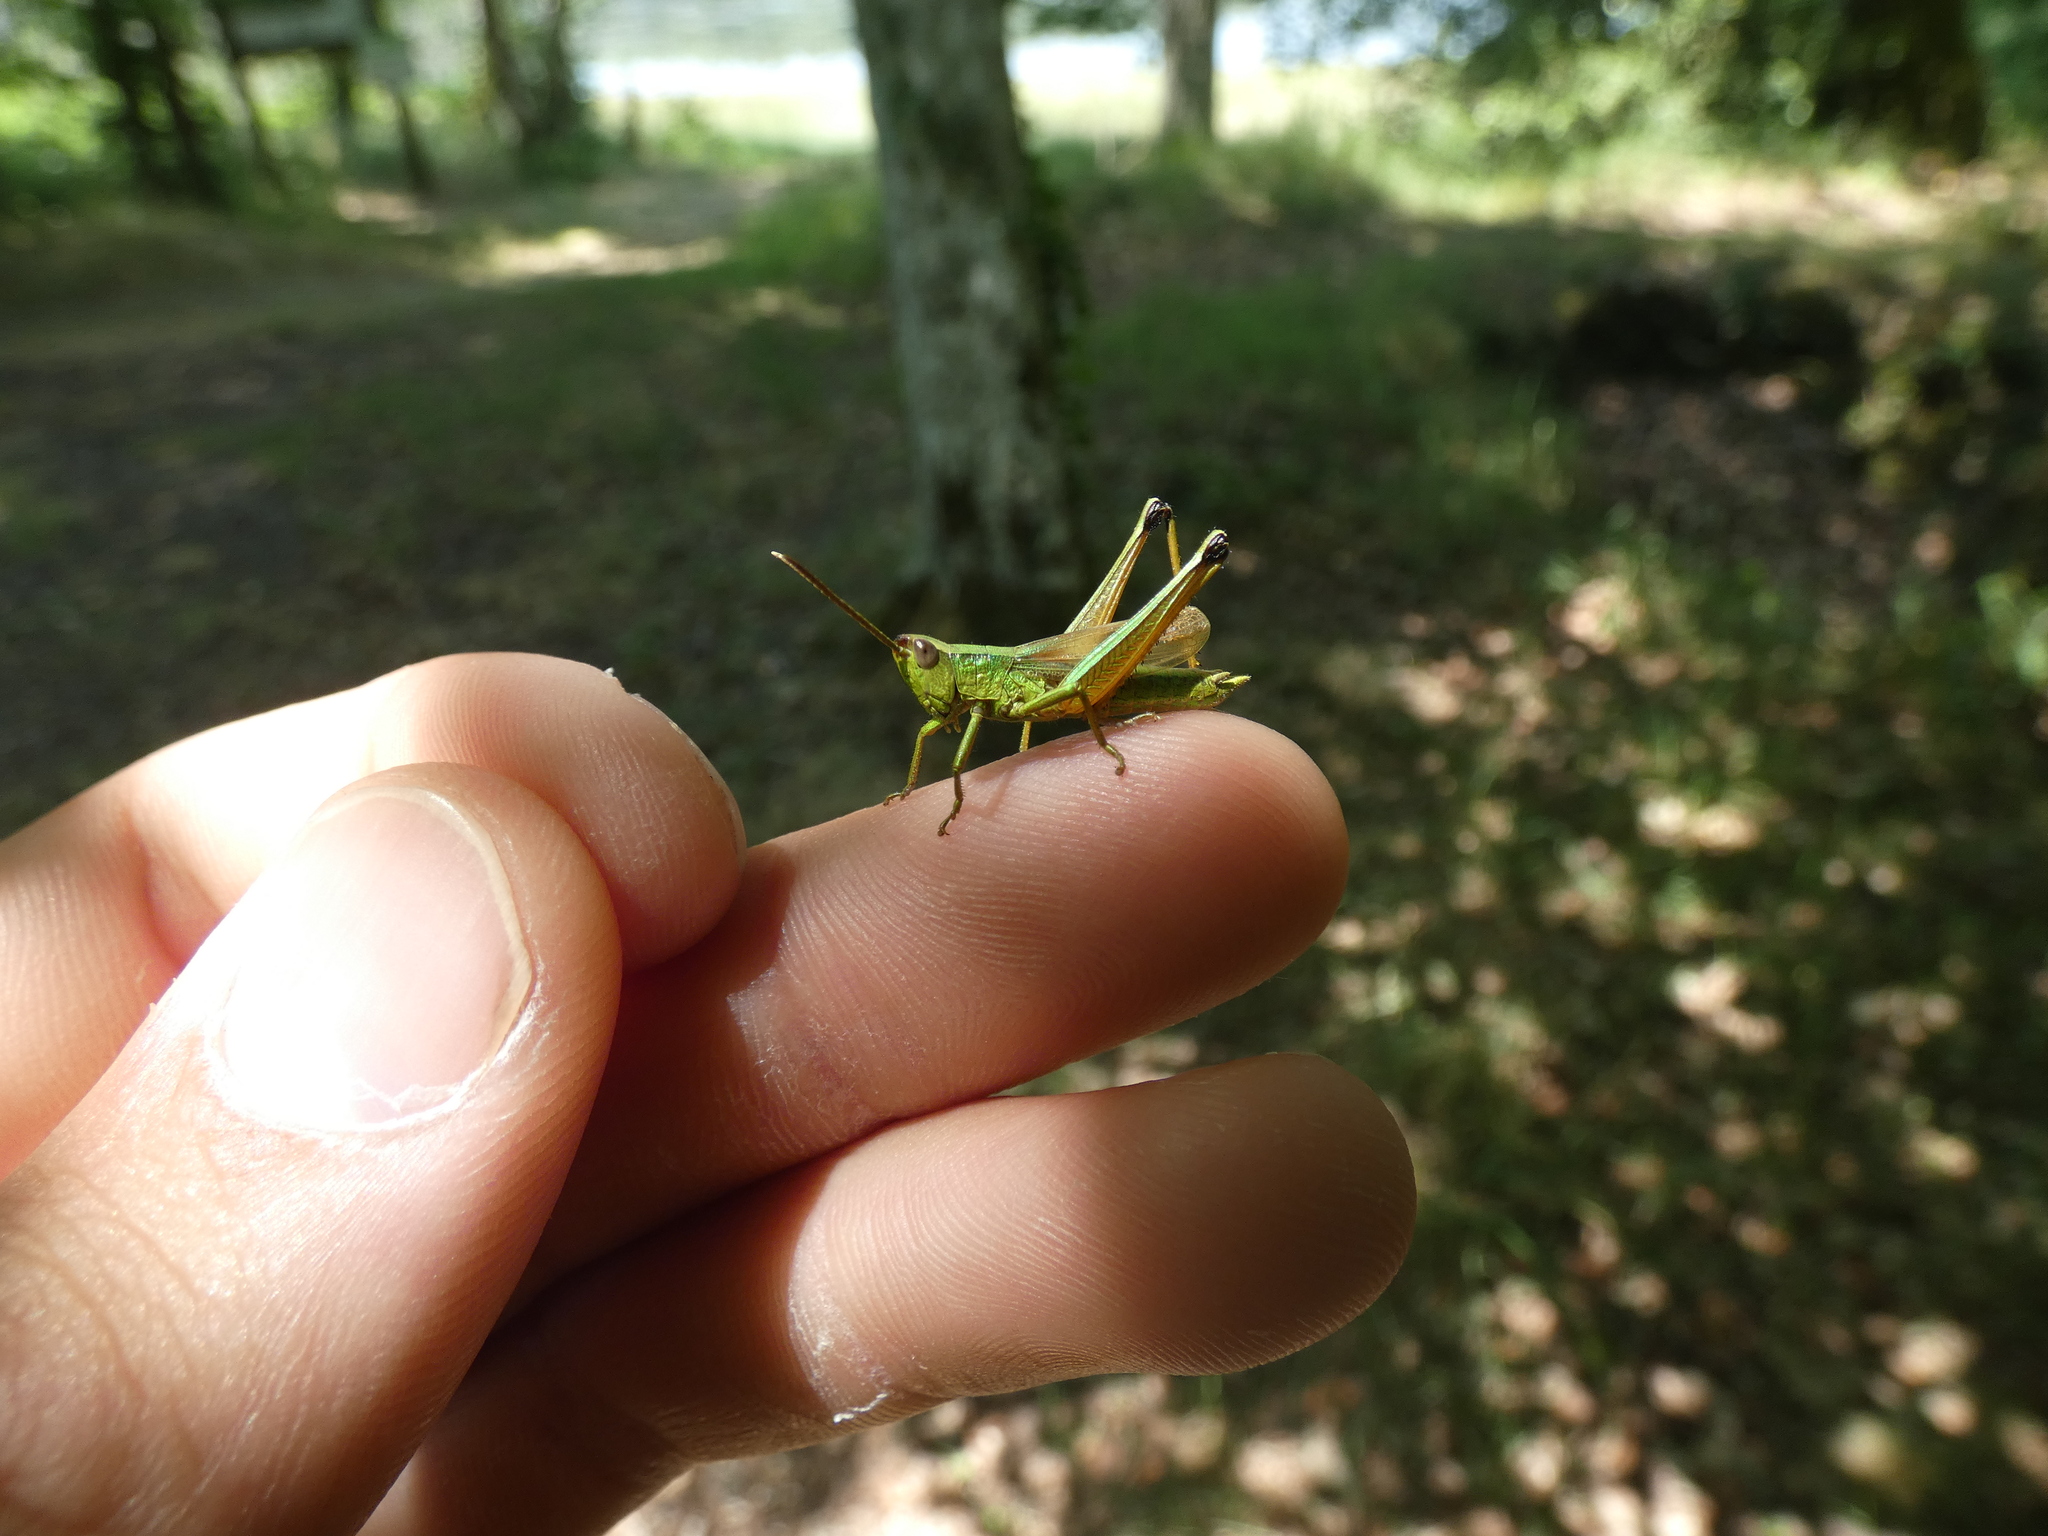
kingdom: Animalia
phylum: Arthropoda
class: Insecta
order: Orthoptera
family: Acrididae
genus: Chrysochraon
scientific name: Chrysochraon dispar
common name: Large gold grasshopper
